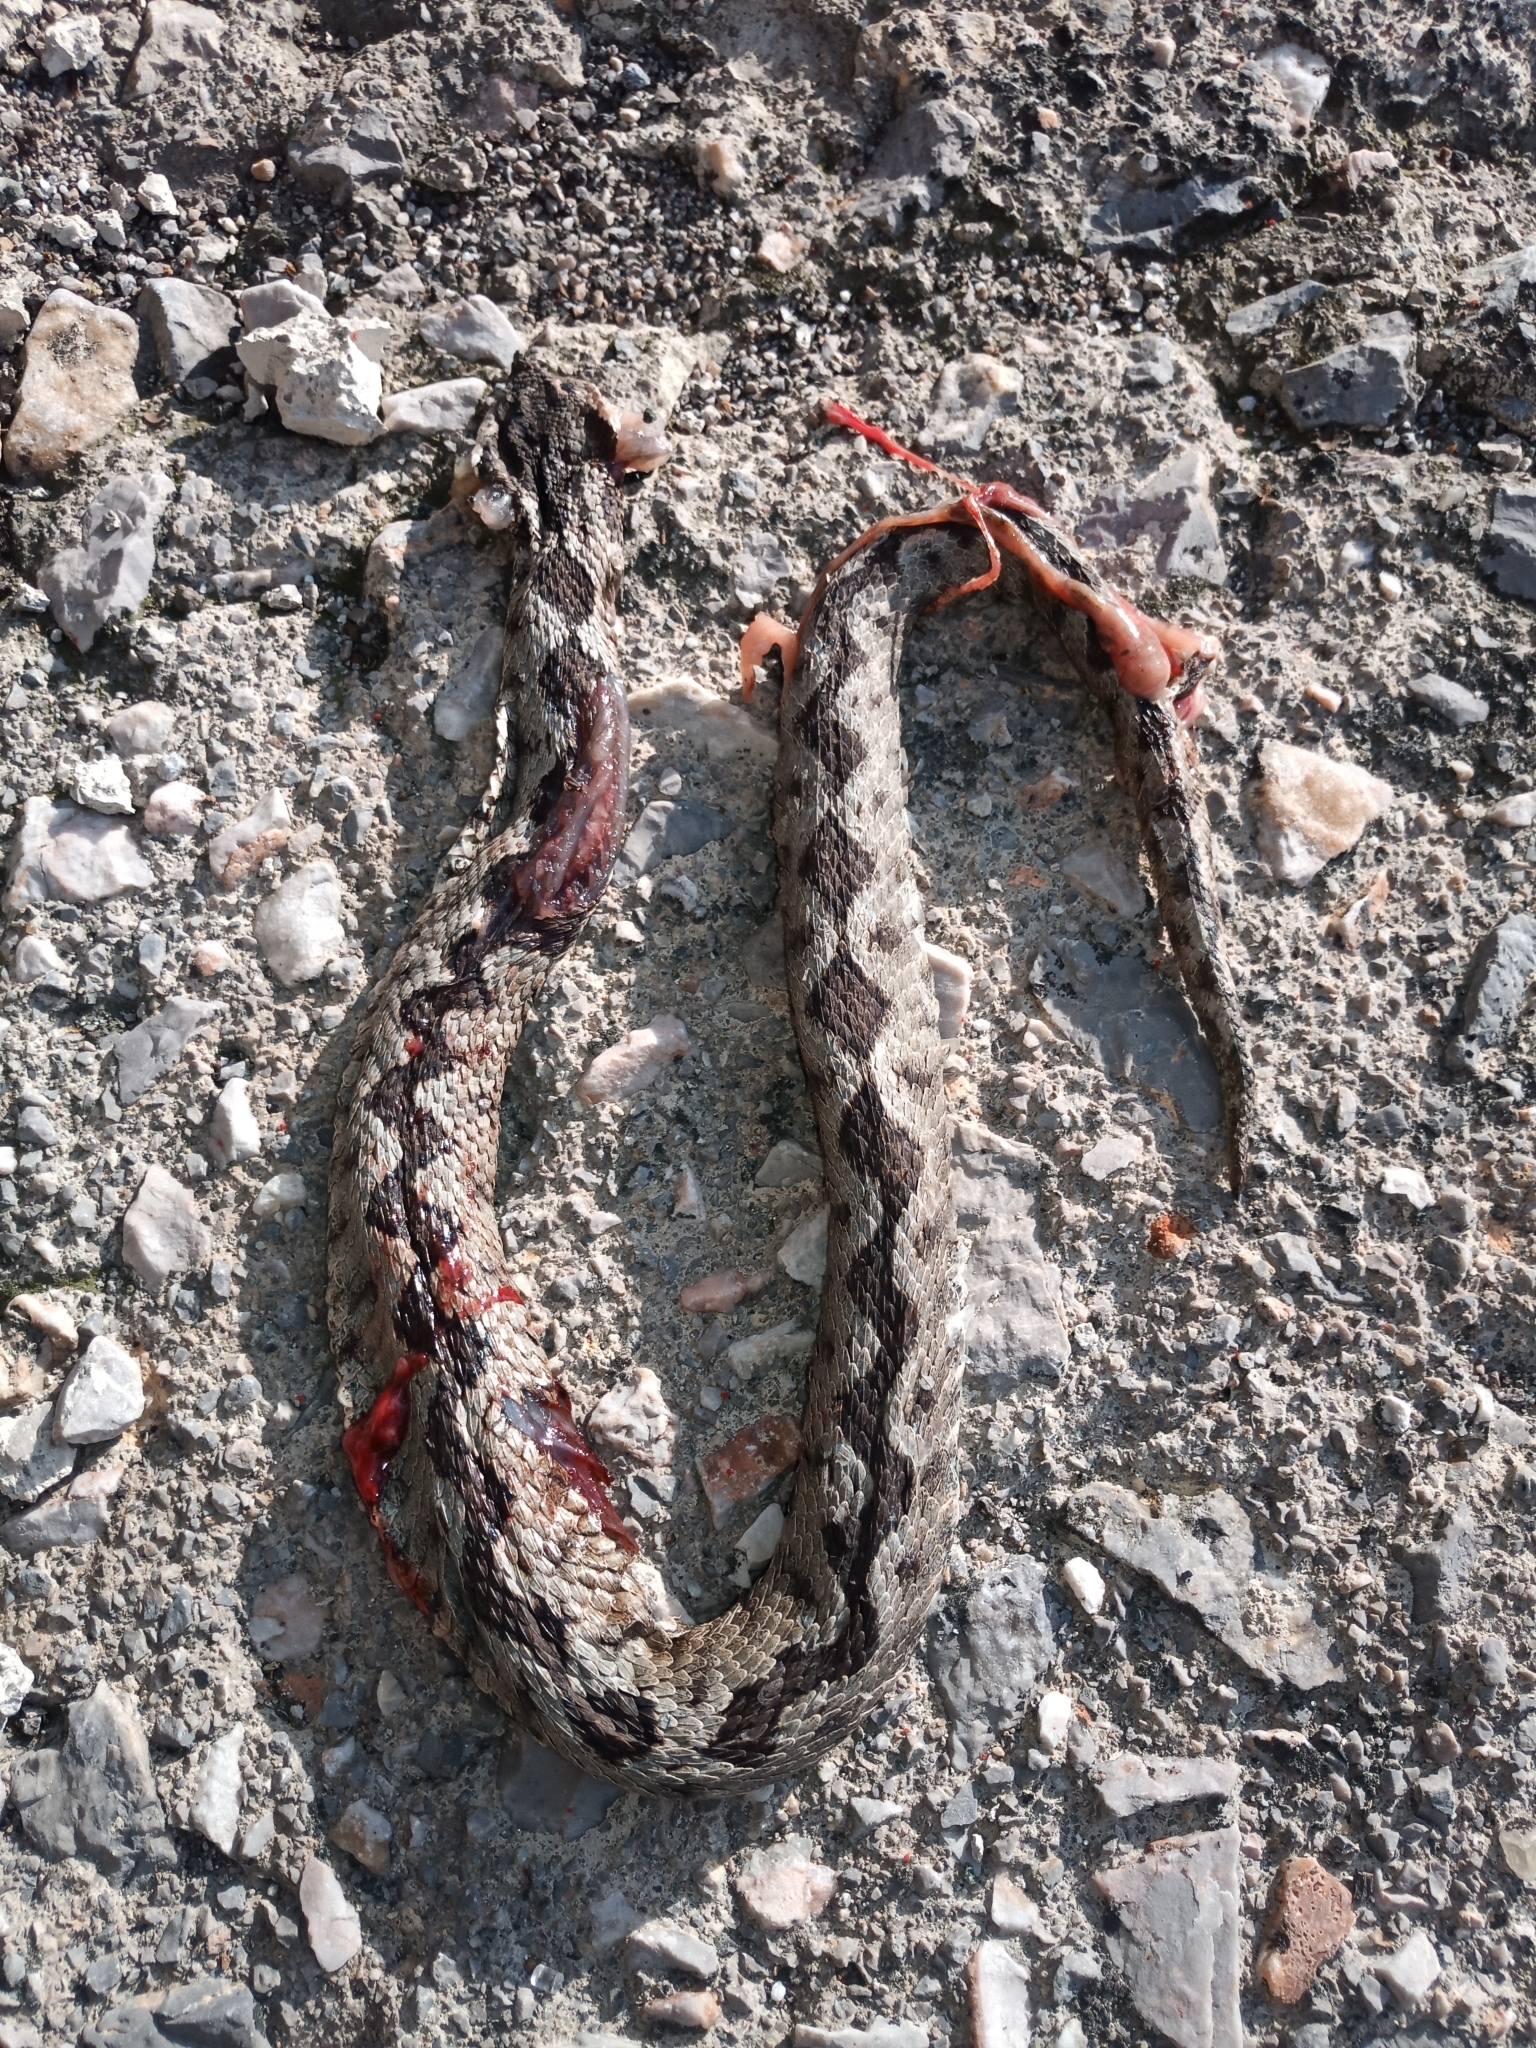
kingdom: Animalia
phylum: Chordata
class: Squamata
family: Viperidae
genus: Vipera
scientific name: Vipera ammodytes
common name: Sand viper
